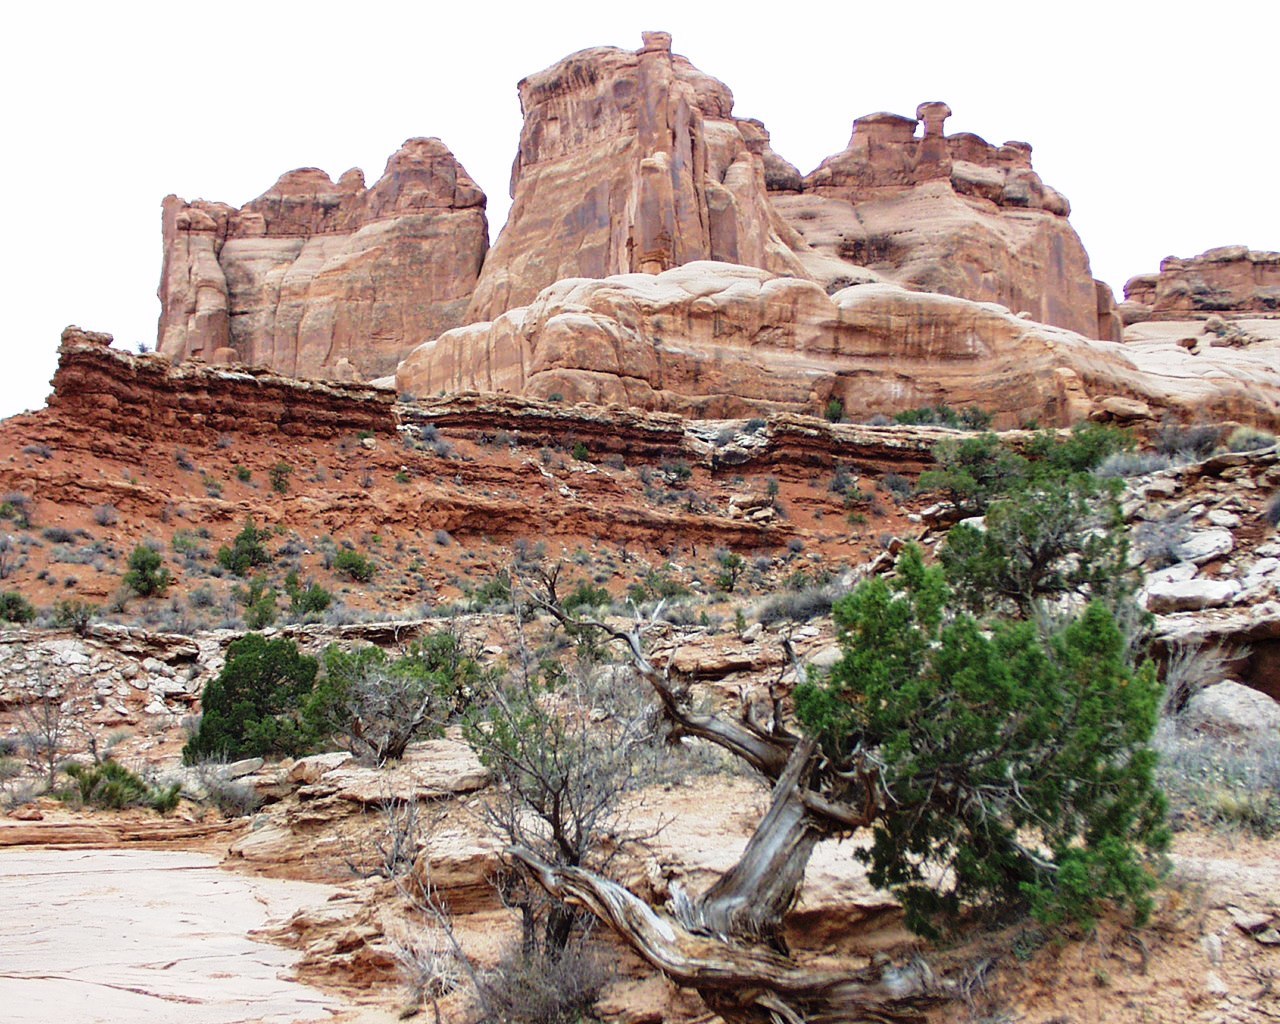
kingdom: Plantae
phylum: Tracheophyta
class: Pinopsida
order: Pinales
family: Cupressaceae
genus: Juniperus
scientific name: Juniperus osteosperma
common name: Utah juniper
